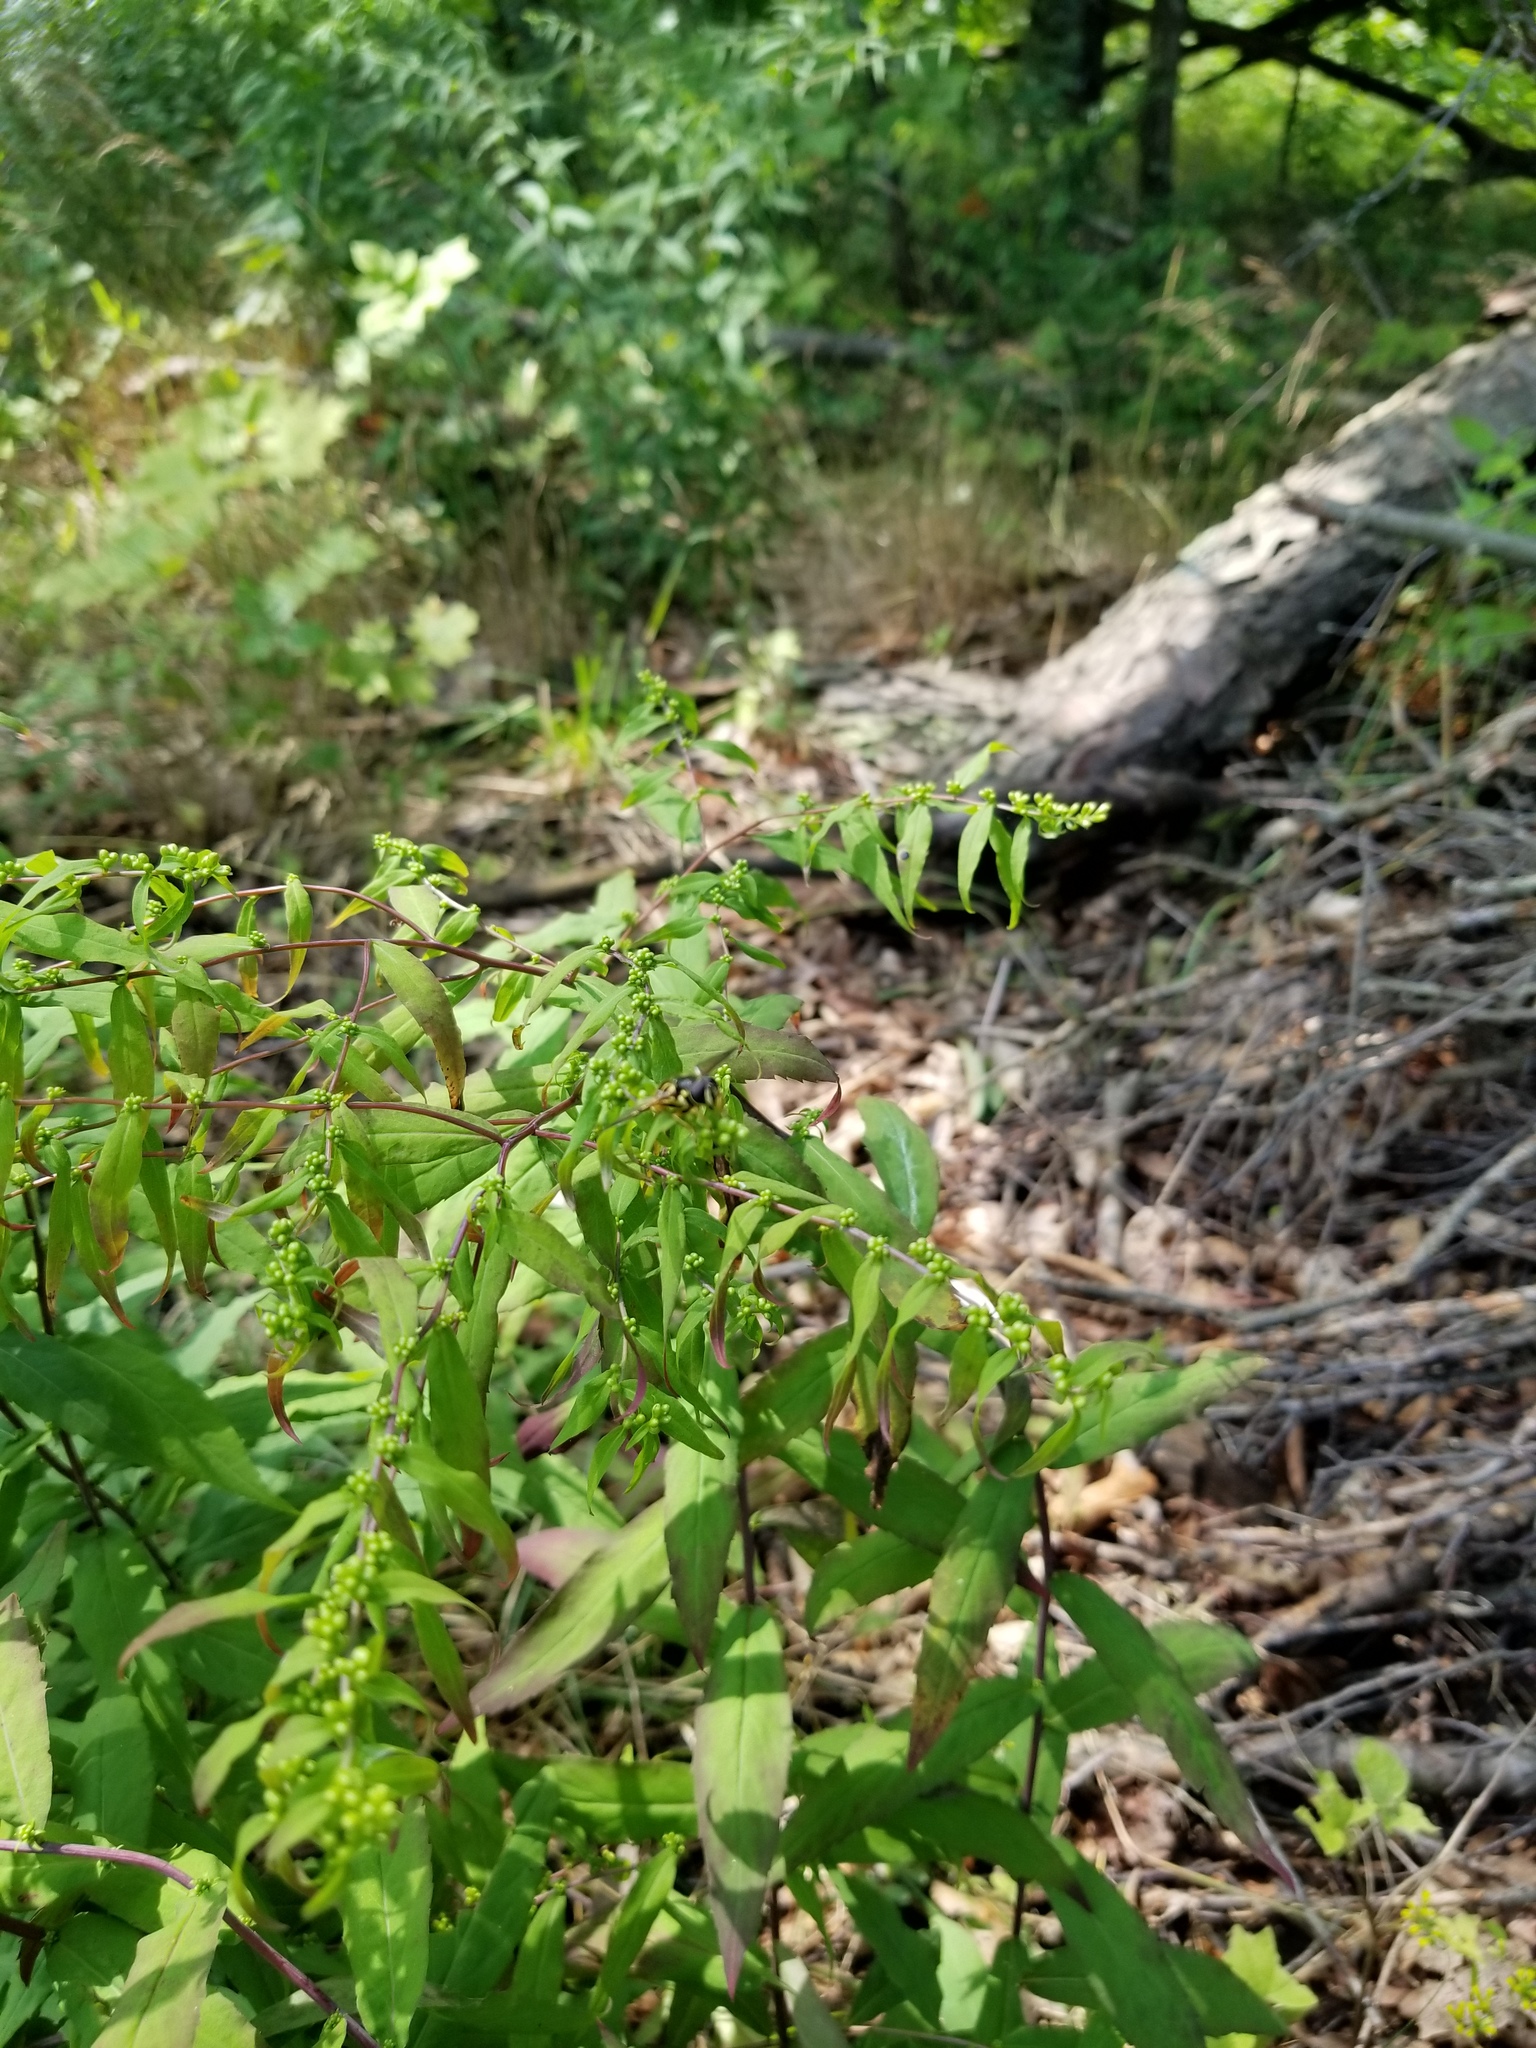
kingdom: Plantae
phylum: Tracheophyta
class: Magnoliopsida
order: Asterales
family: Asteraceae
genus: Solidago
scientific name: Solidago caesia
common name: Woodland goldenrod
